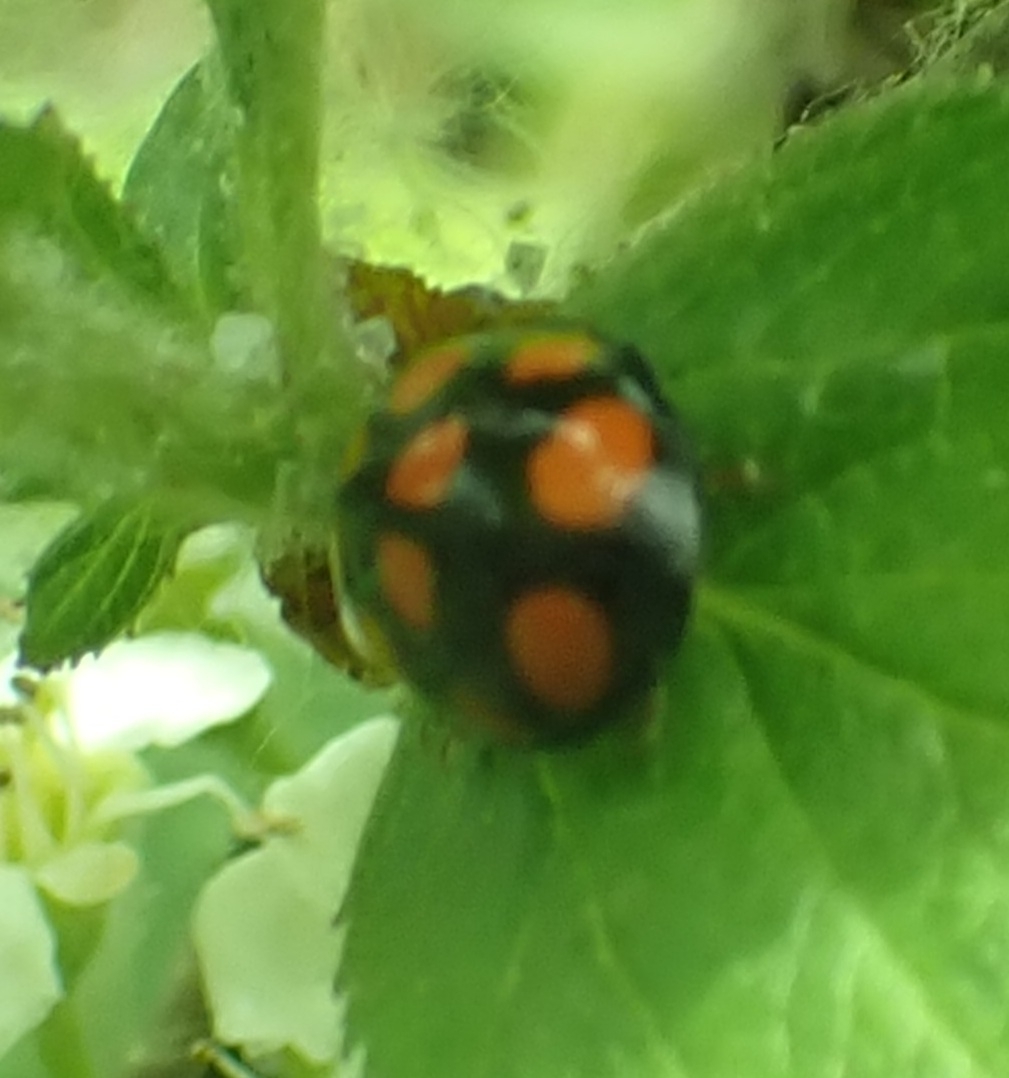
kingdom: Animalia
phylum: Arthropoda
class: Insecta
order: Coleoptera
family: Coccinellidae
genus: Harmonia
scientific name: Harmonia axyridis
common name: Harlequin ladybird
